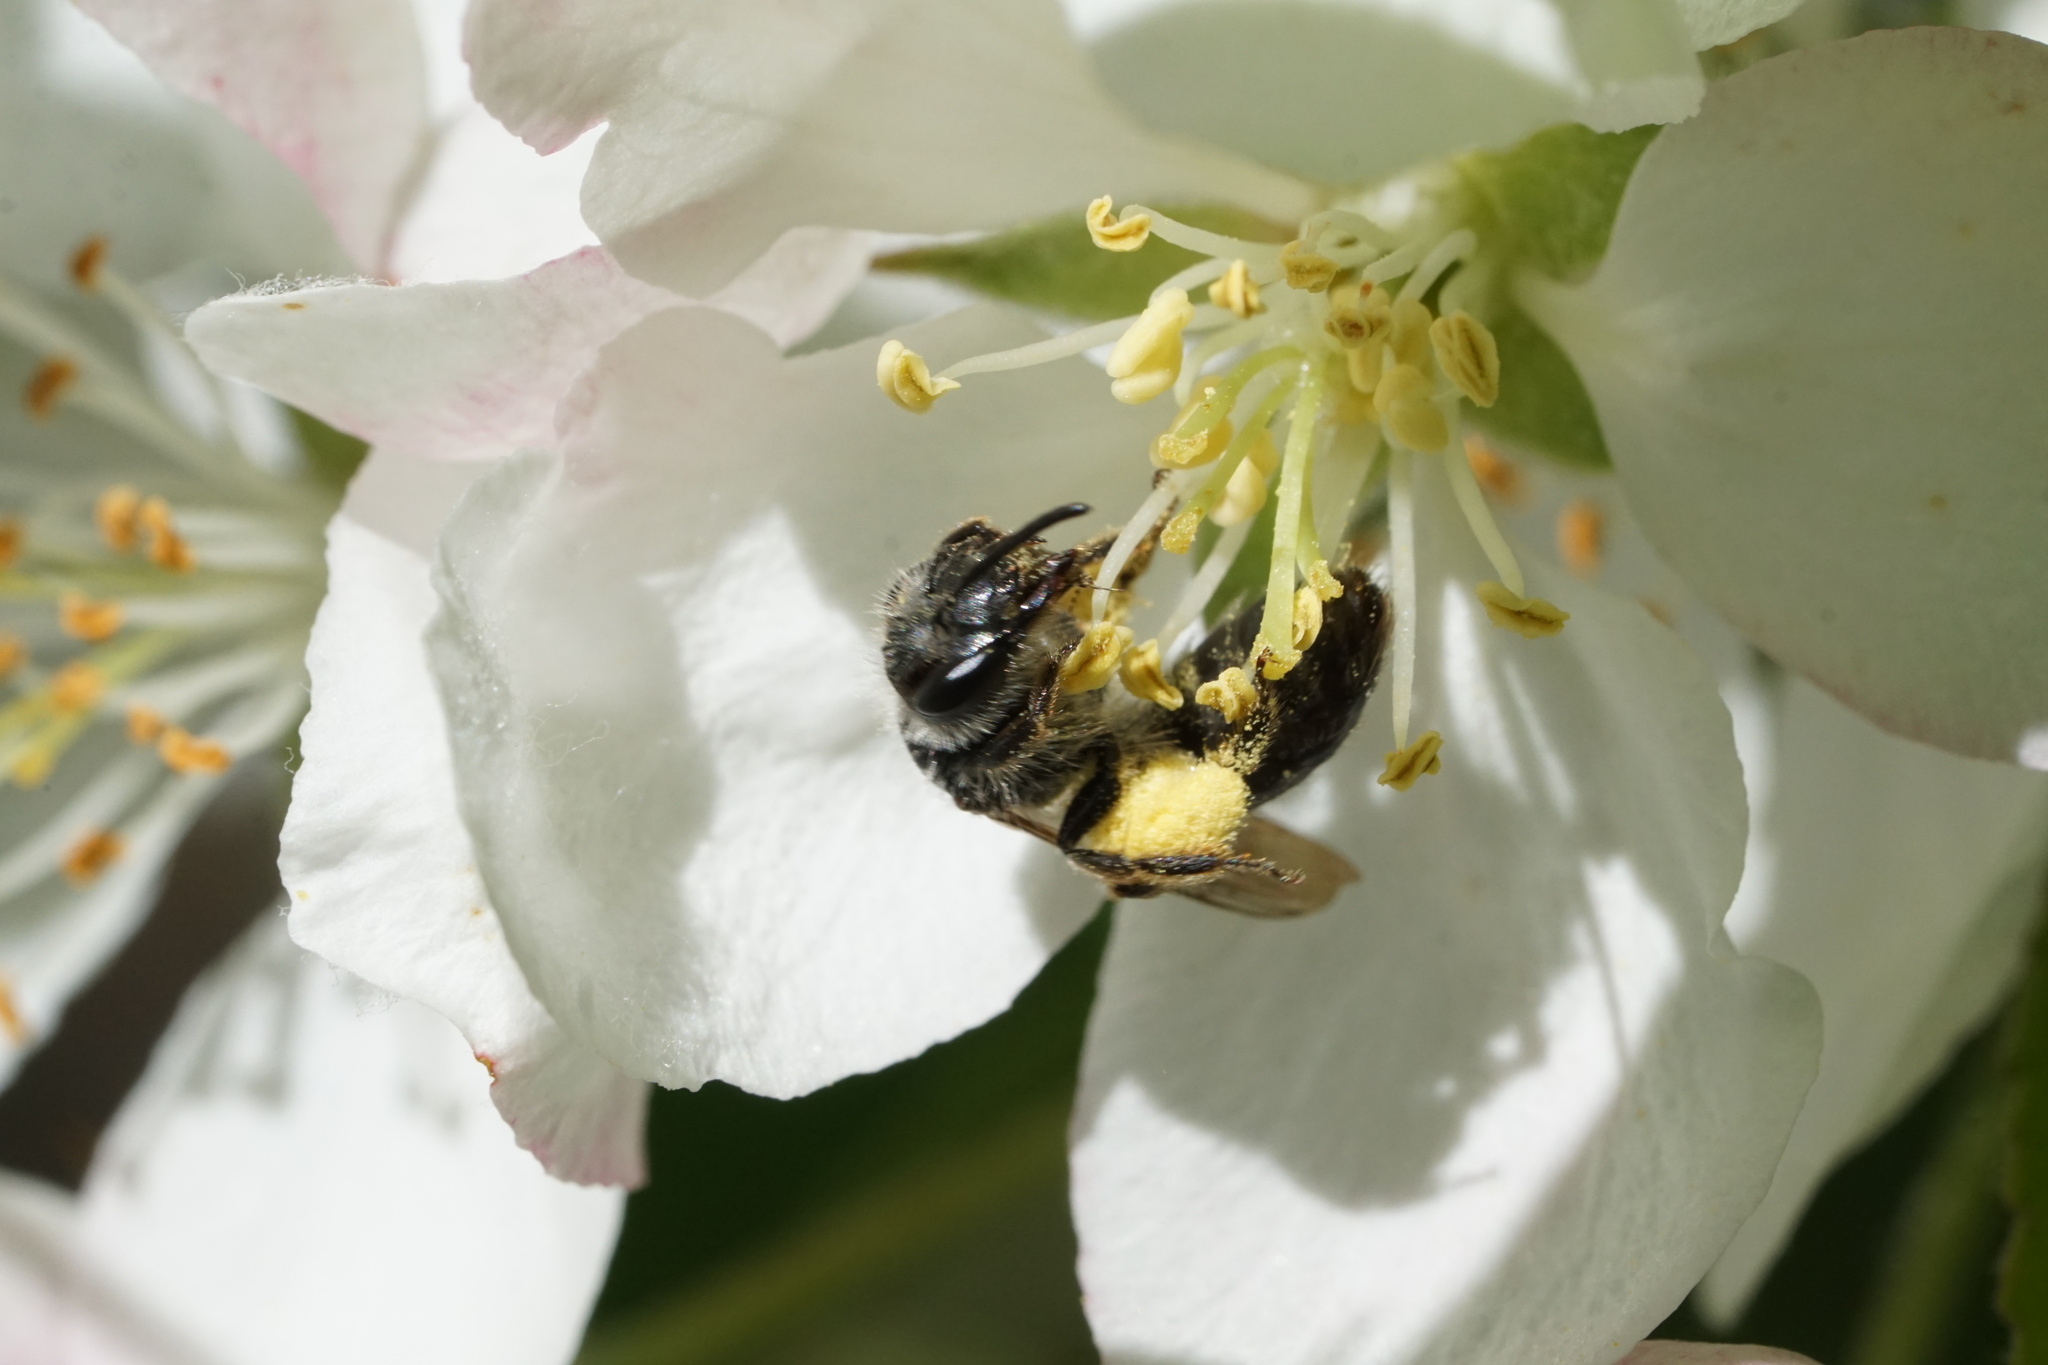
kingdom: Animalia
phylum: Arthropoda
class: Insecta
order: Hymenoptera
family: Andrenidae
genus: Andrena
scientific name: Andrena tridens
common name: Trident miner bee
